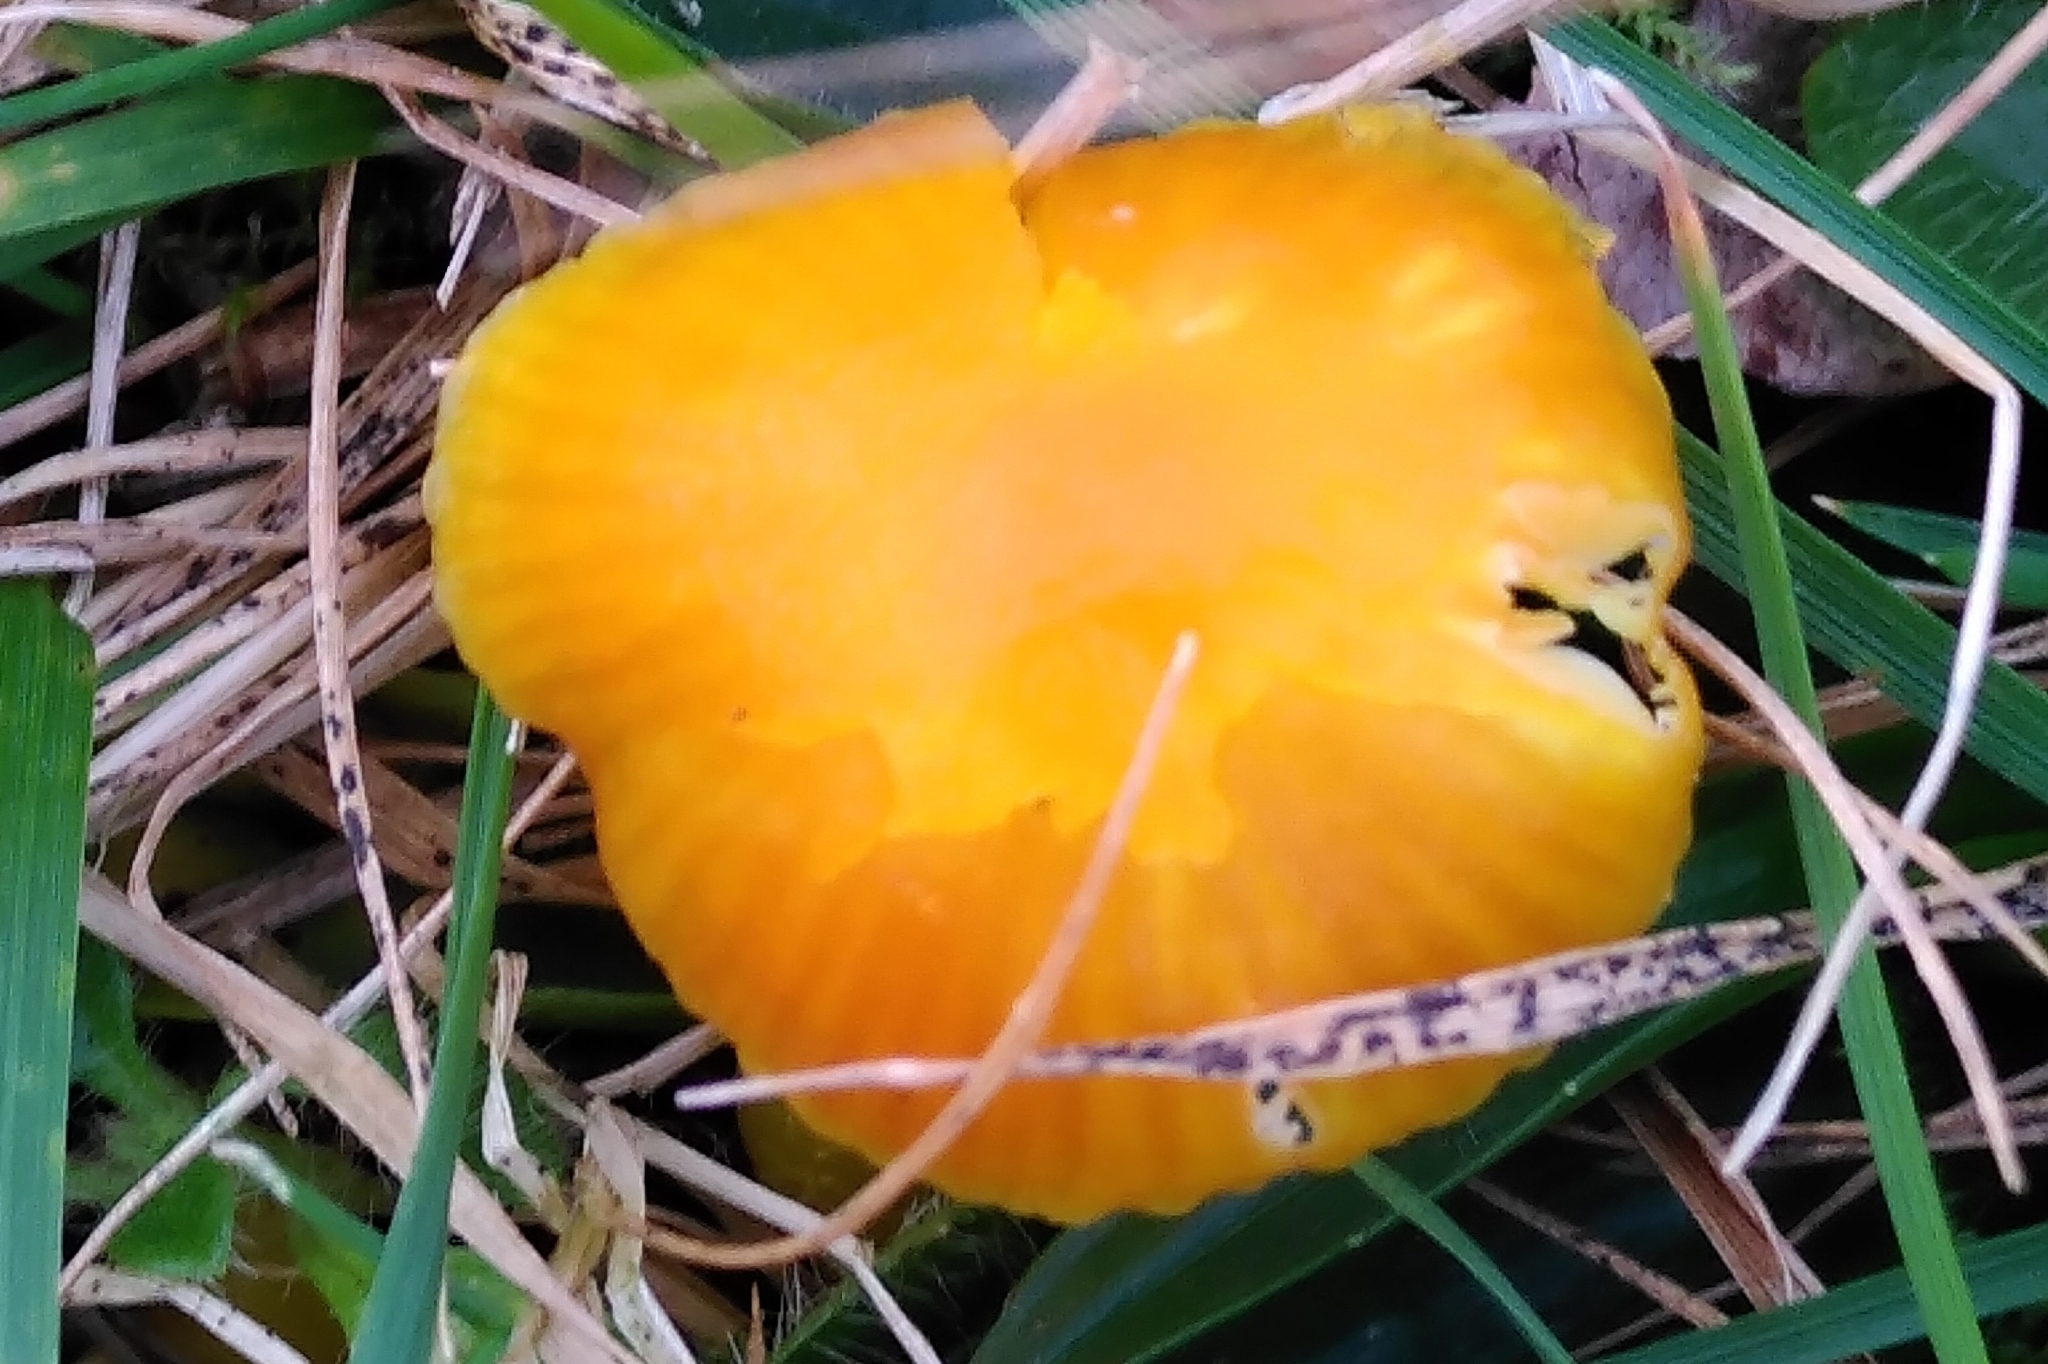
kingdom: Fungi
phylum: Basidiomycota
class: Agaricomycetes
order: Agaricales
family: Hygrophoraceae
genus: Hygrocybe
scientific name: Hygrocybe ceracea
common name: Butter waxcap
